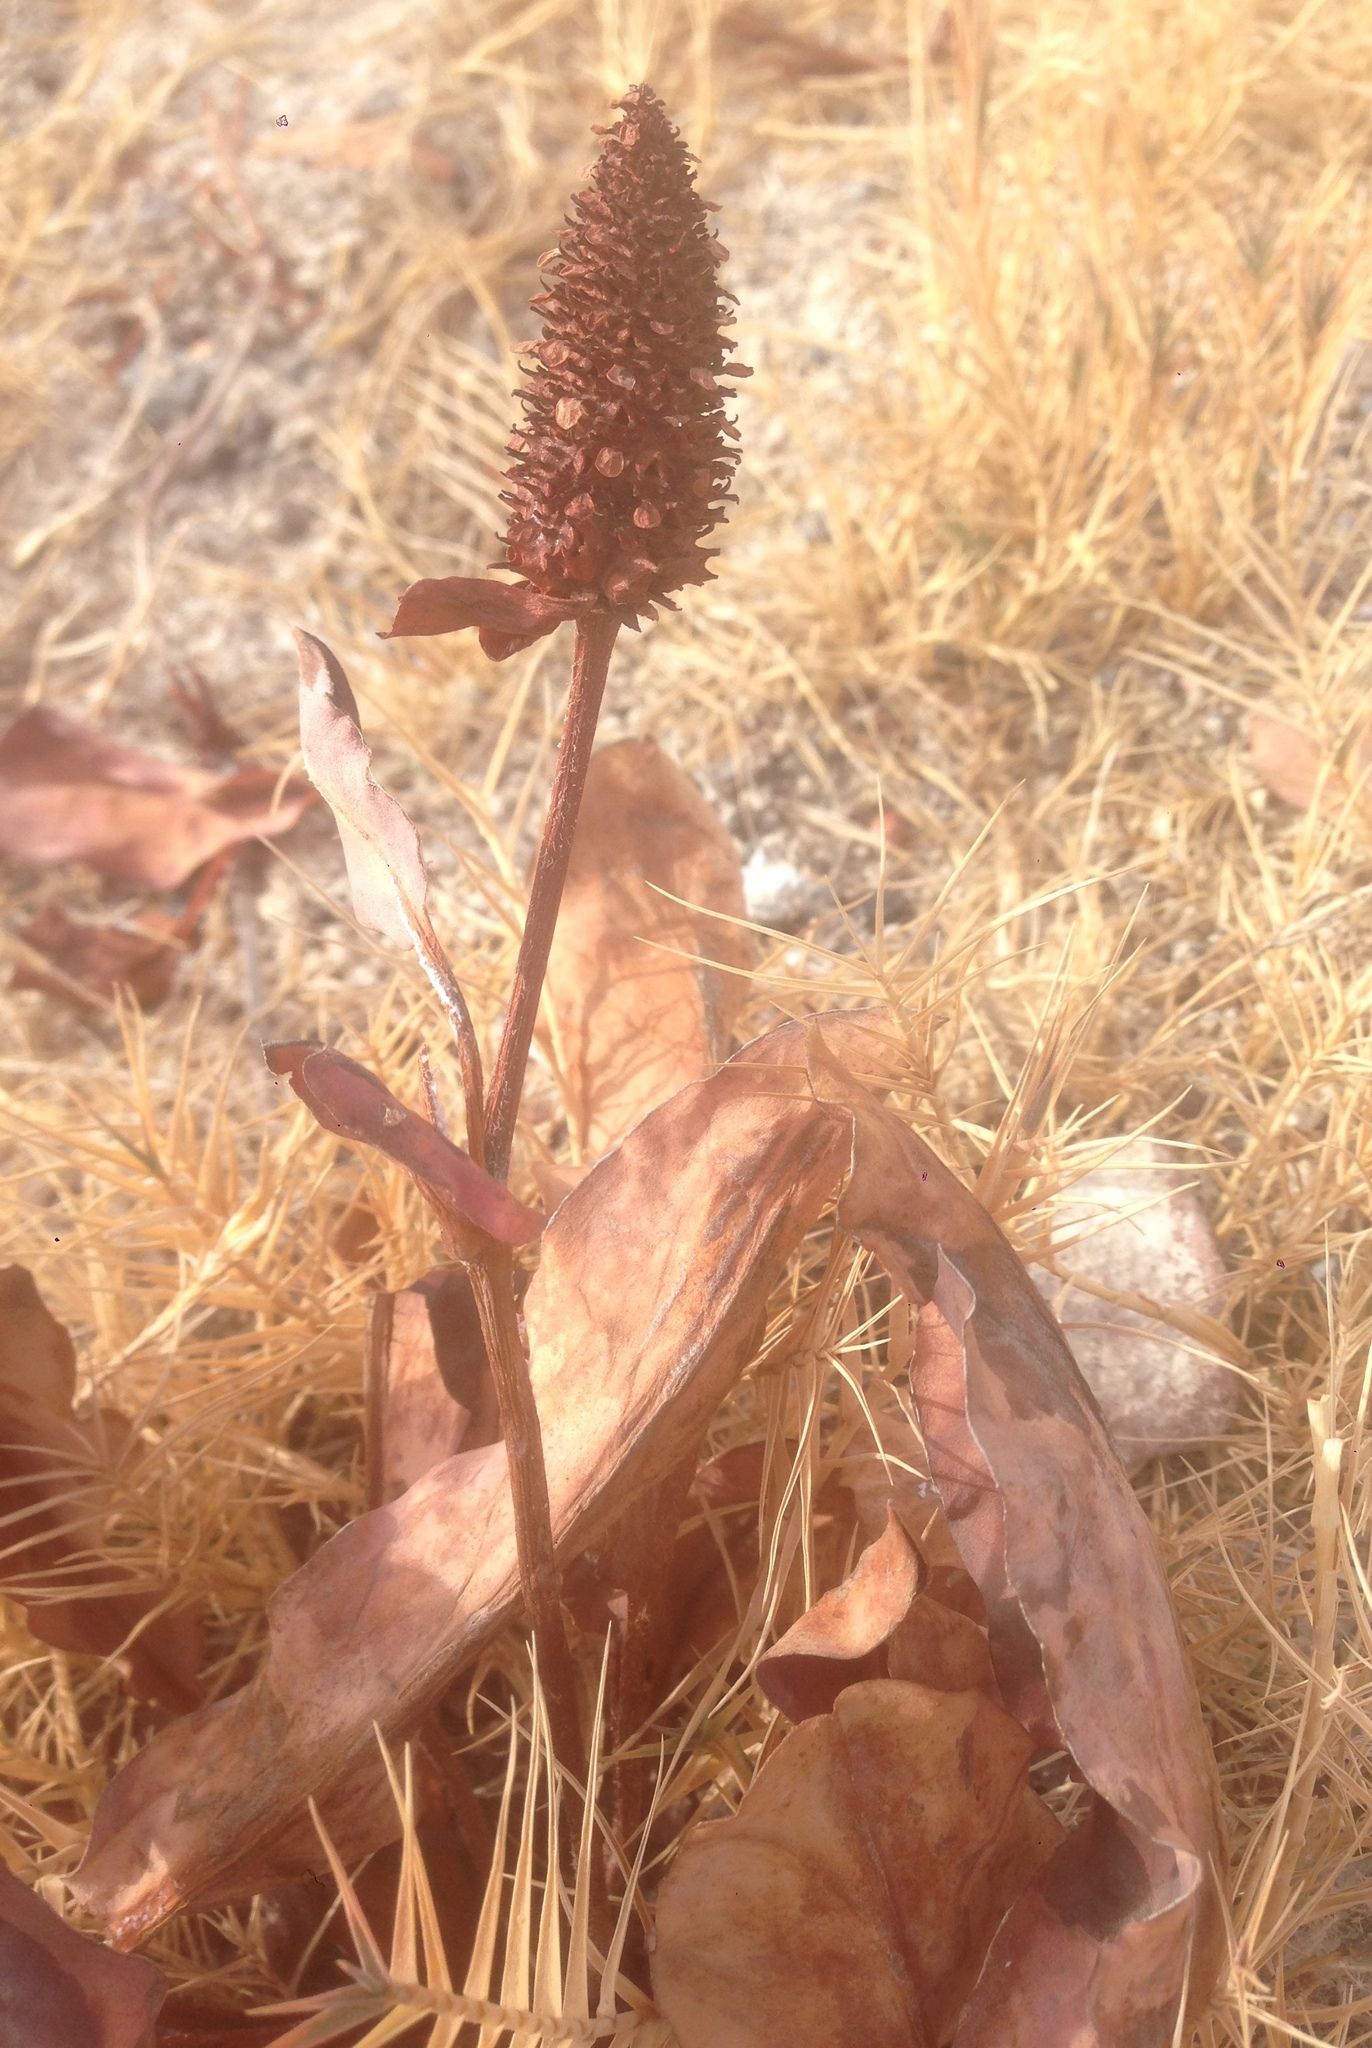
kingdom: Plantae
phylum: Tracheophyta
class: Magnoliopsida
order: Piperales
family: Saururaceae
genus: Anemopsis
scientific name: Anemopsis californica
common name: Apache-beads
